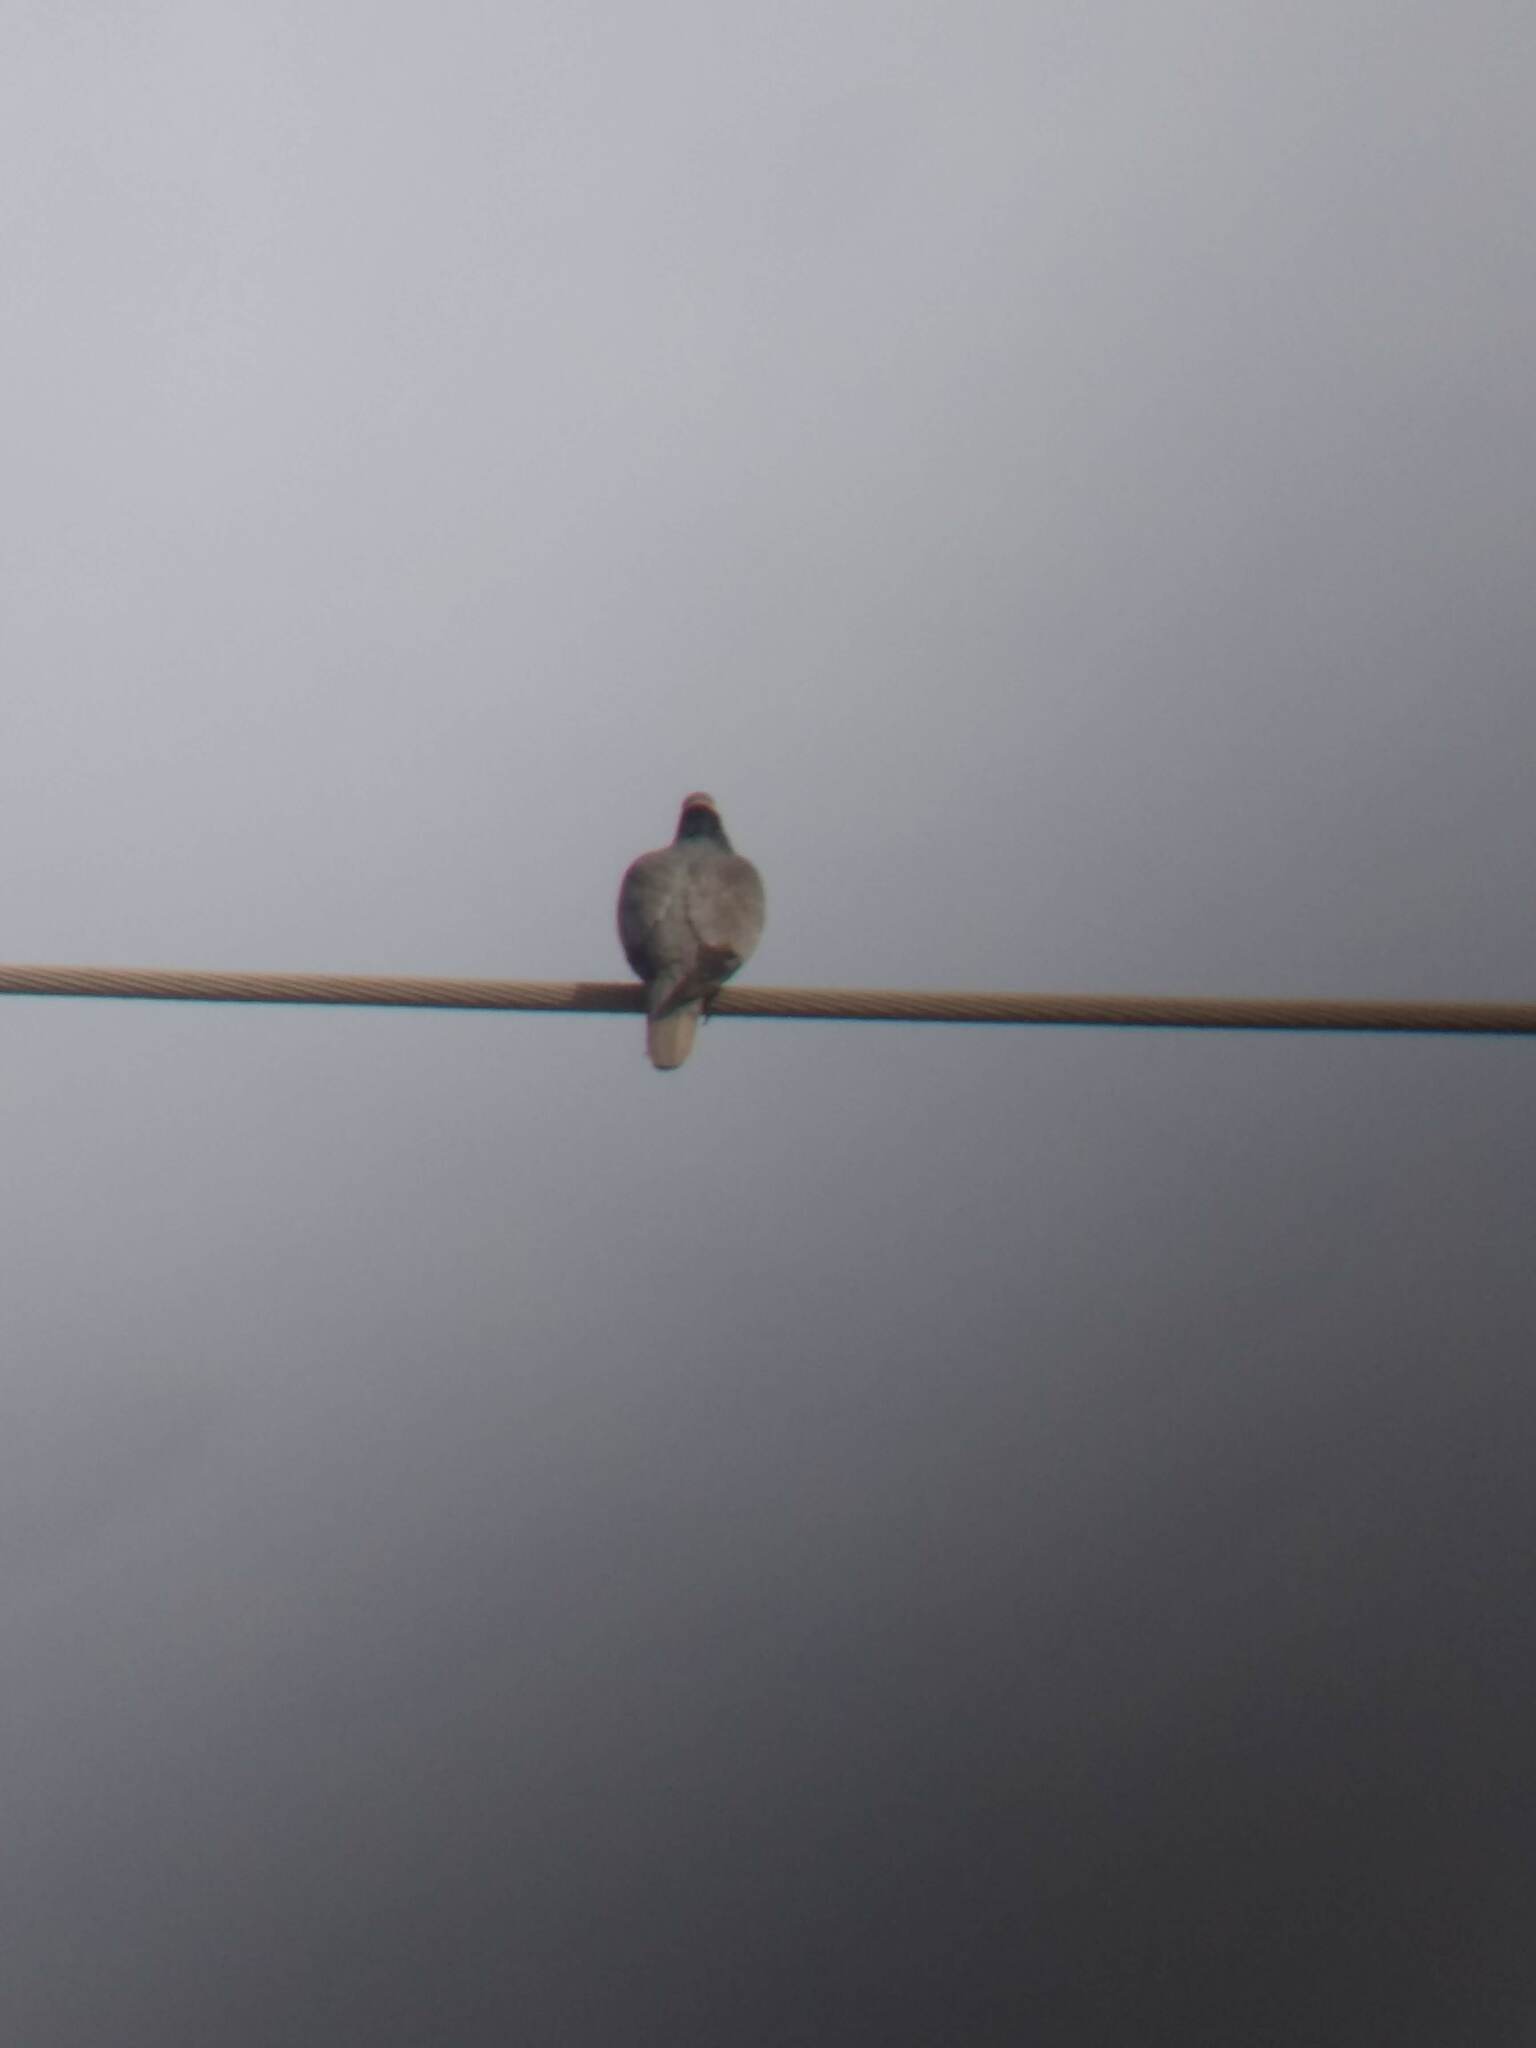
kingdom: Animalia
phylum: Chordata
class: Aves
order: Columbiformes
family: Columbidae
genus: Patagioenas
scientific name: Patagioenas fasciata
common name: Band-tailed pigeon
